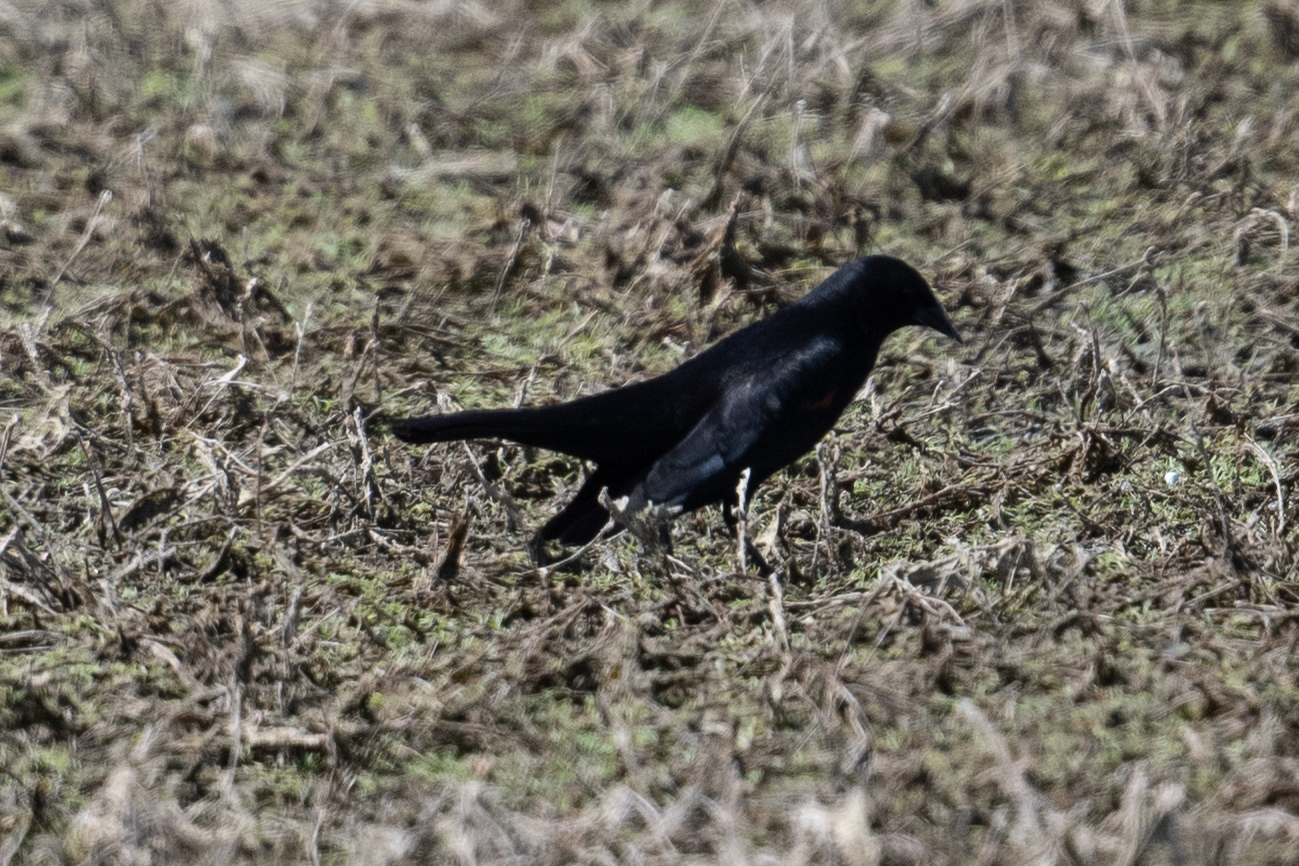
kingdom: Animalia
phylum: Chordata
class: Aves
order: Passeriformes
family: Icteridae
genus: Agelaius
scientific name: Agelaius phoeniceus
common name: Red-winged blackbird
